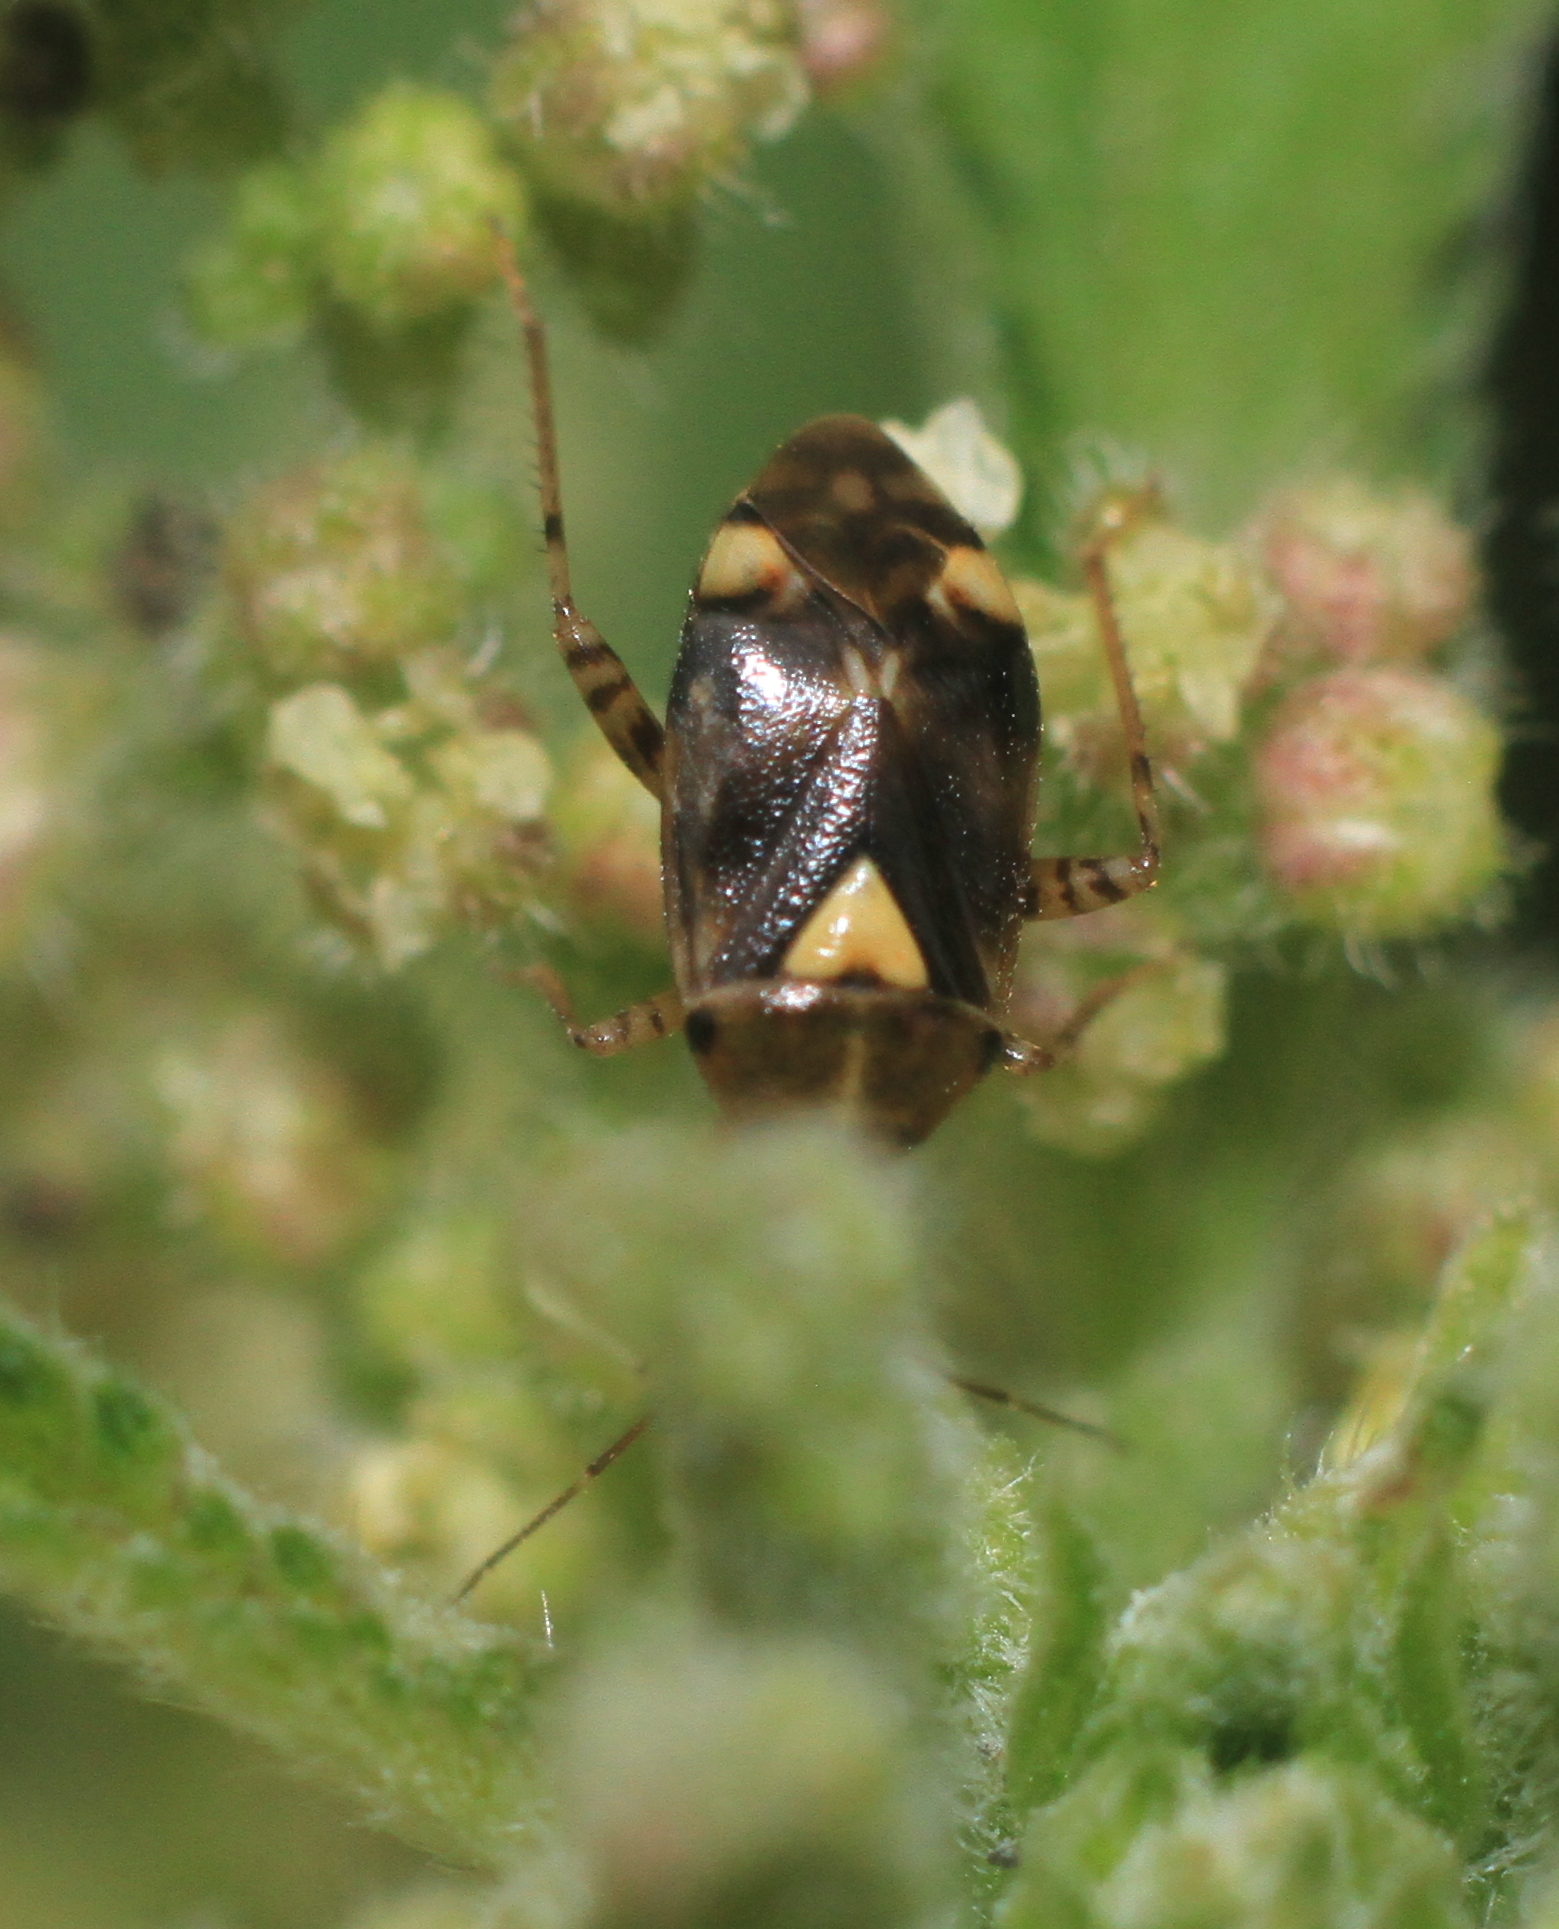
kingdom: Animalia
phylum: Arthropoda
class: Insecta
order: Hemiptera
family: Miridae
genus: Liocoris
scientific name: Liocoris tripustulatus
